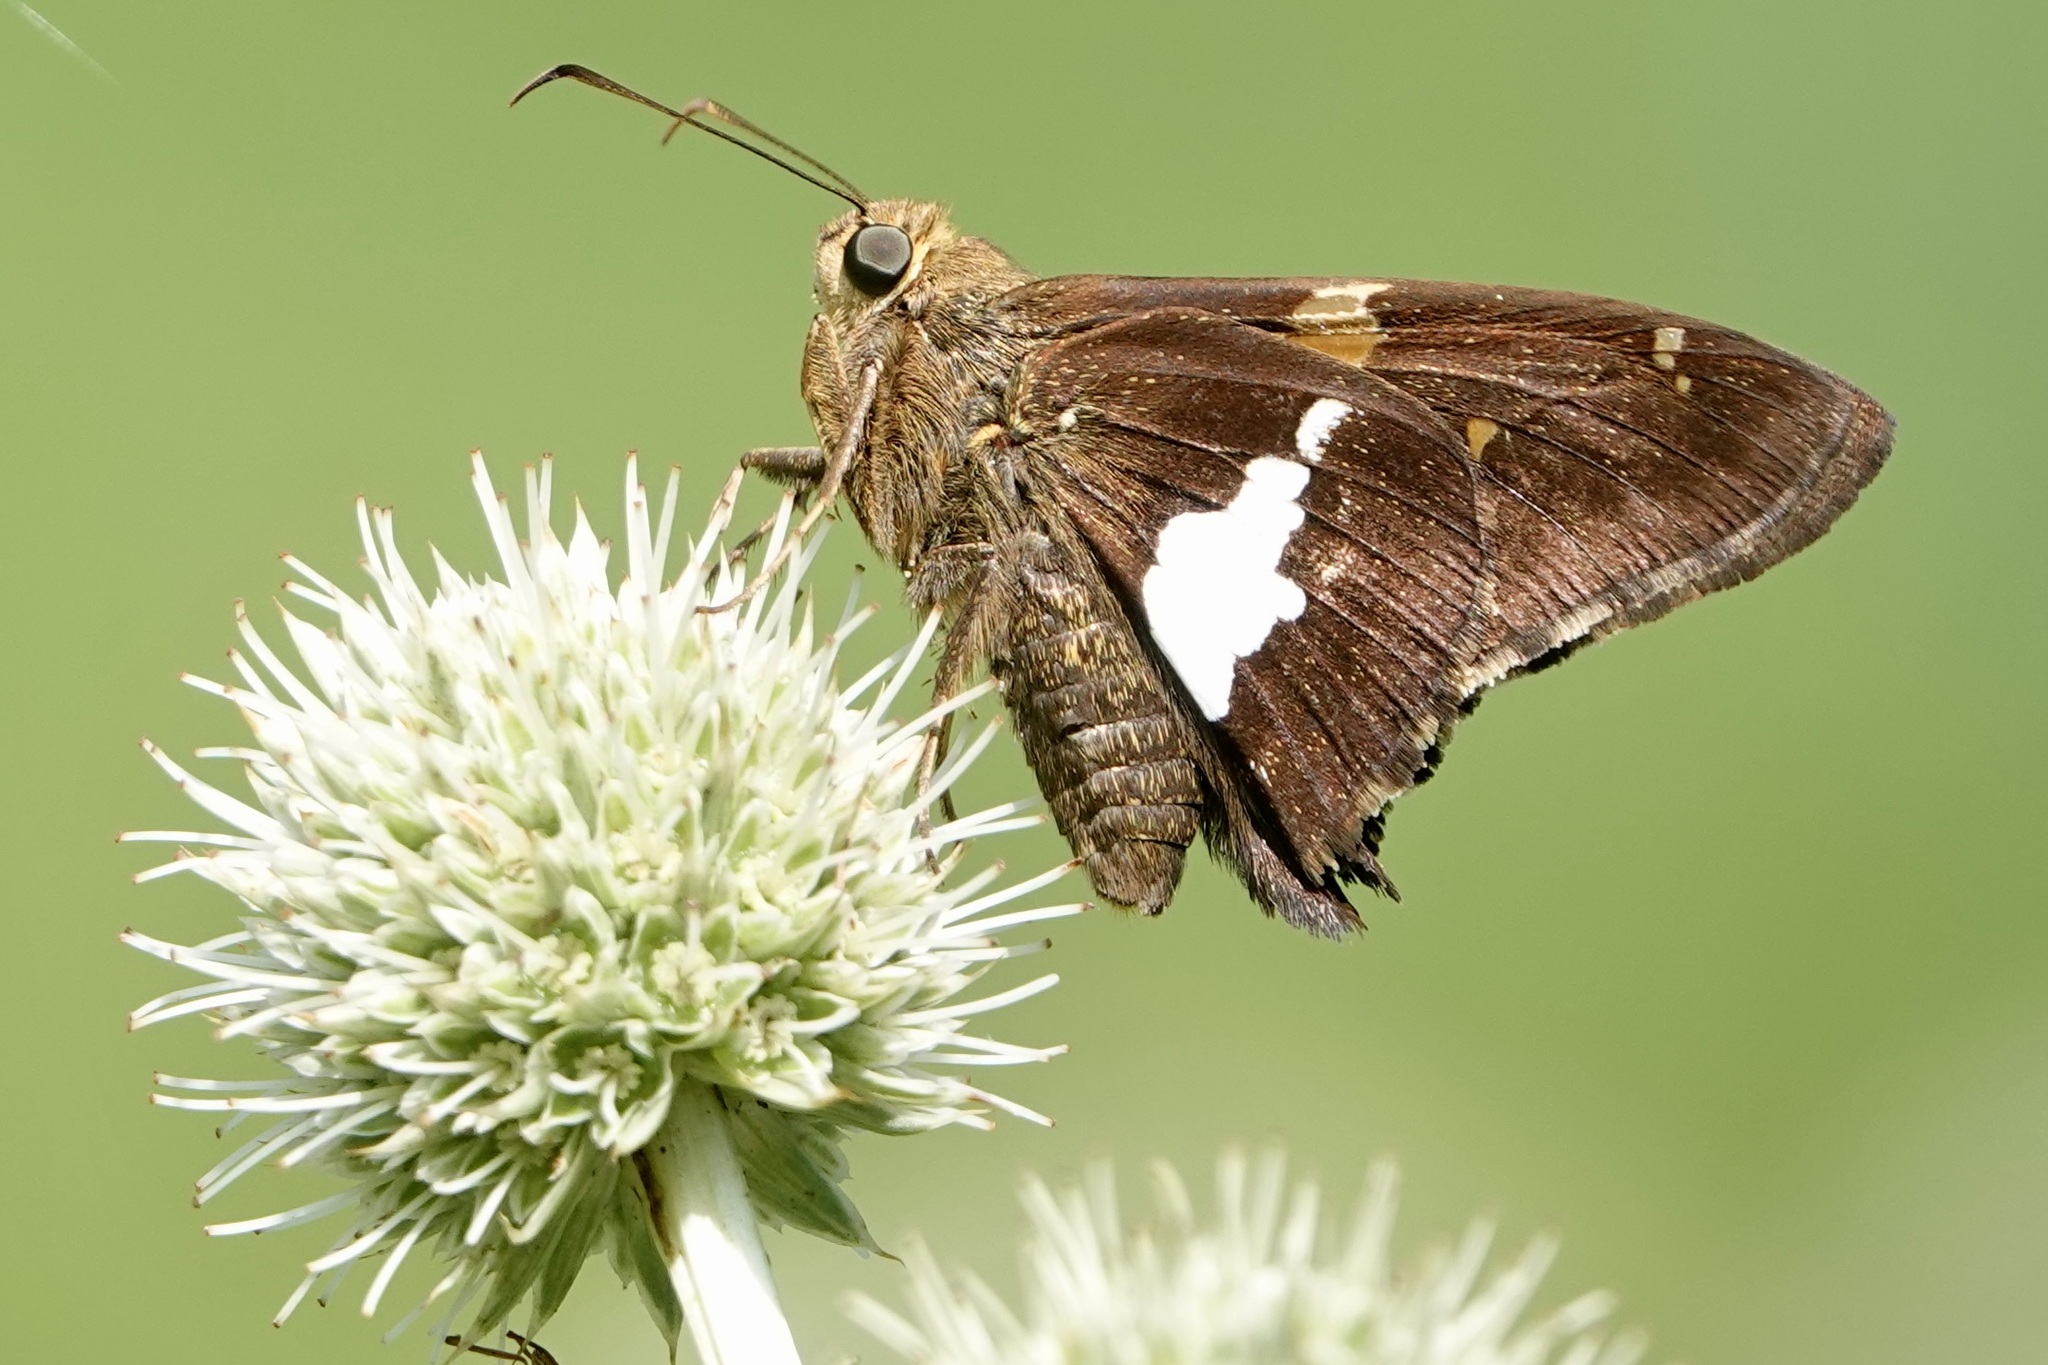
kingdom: Animalia
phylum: Arthropoda
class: Insecta
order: Lepidoptera
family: Hesperiidae
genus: Epargyreus
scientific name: Epargyreus clarus
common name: Silver-spotted skipper
